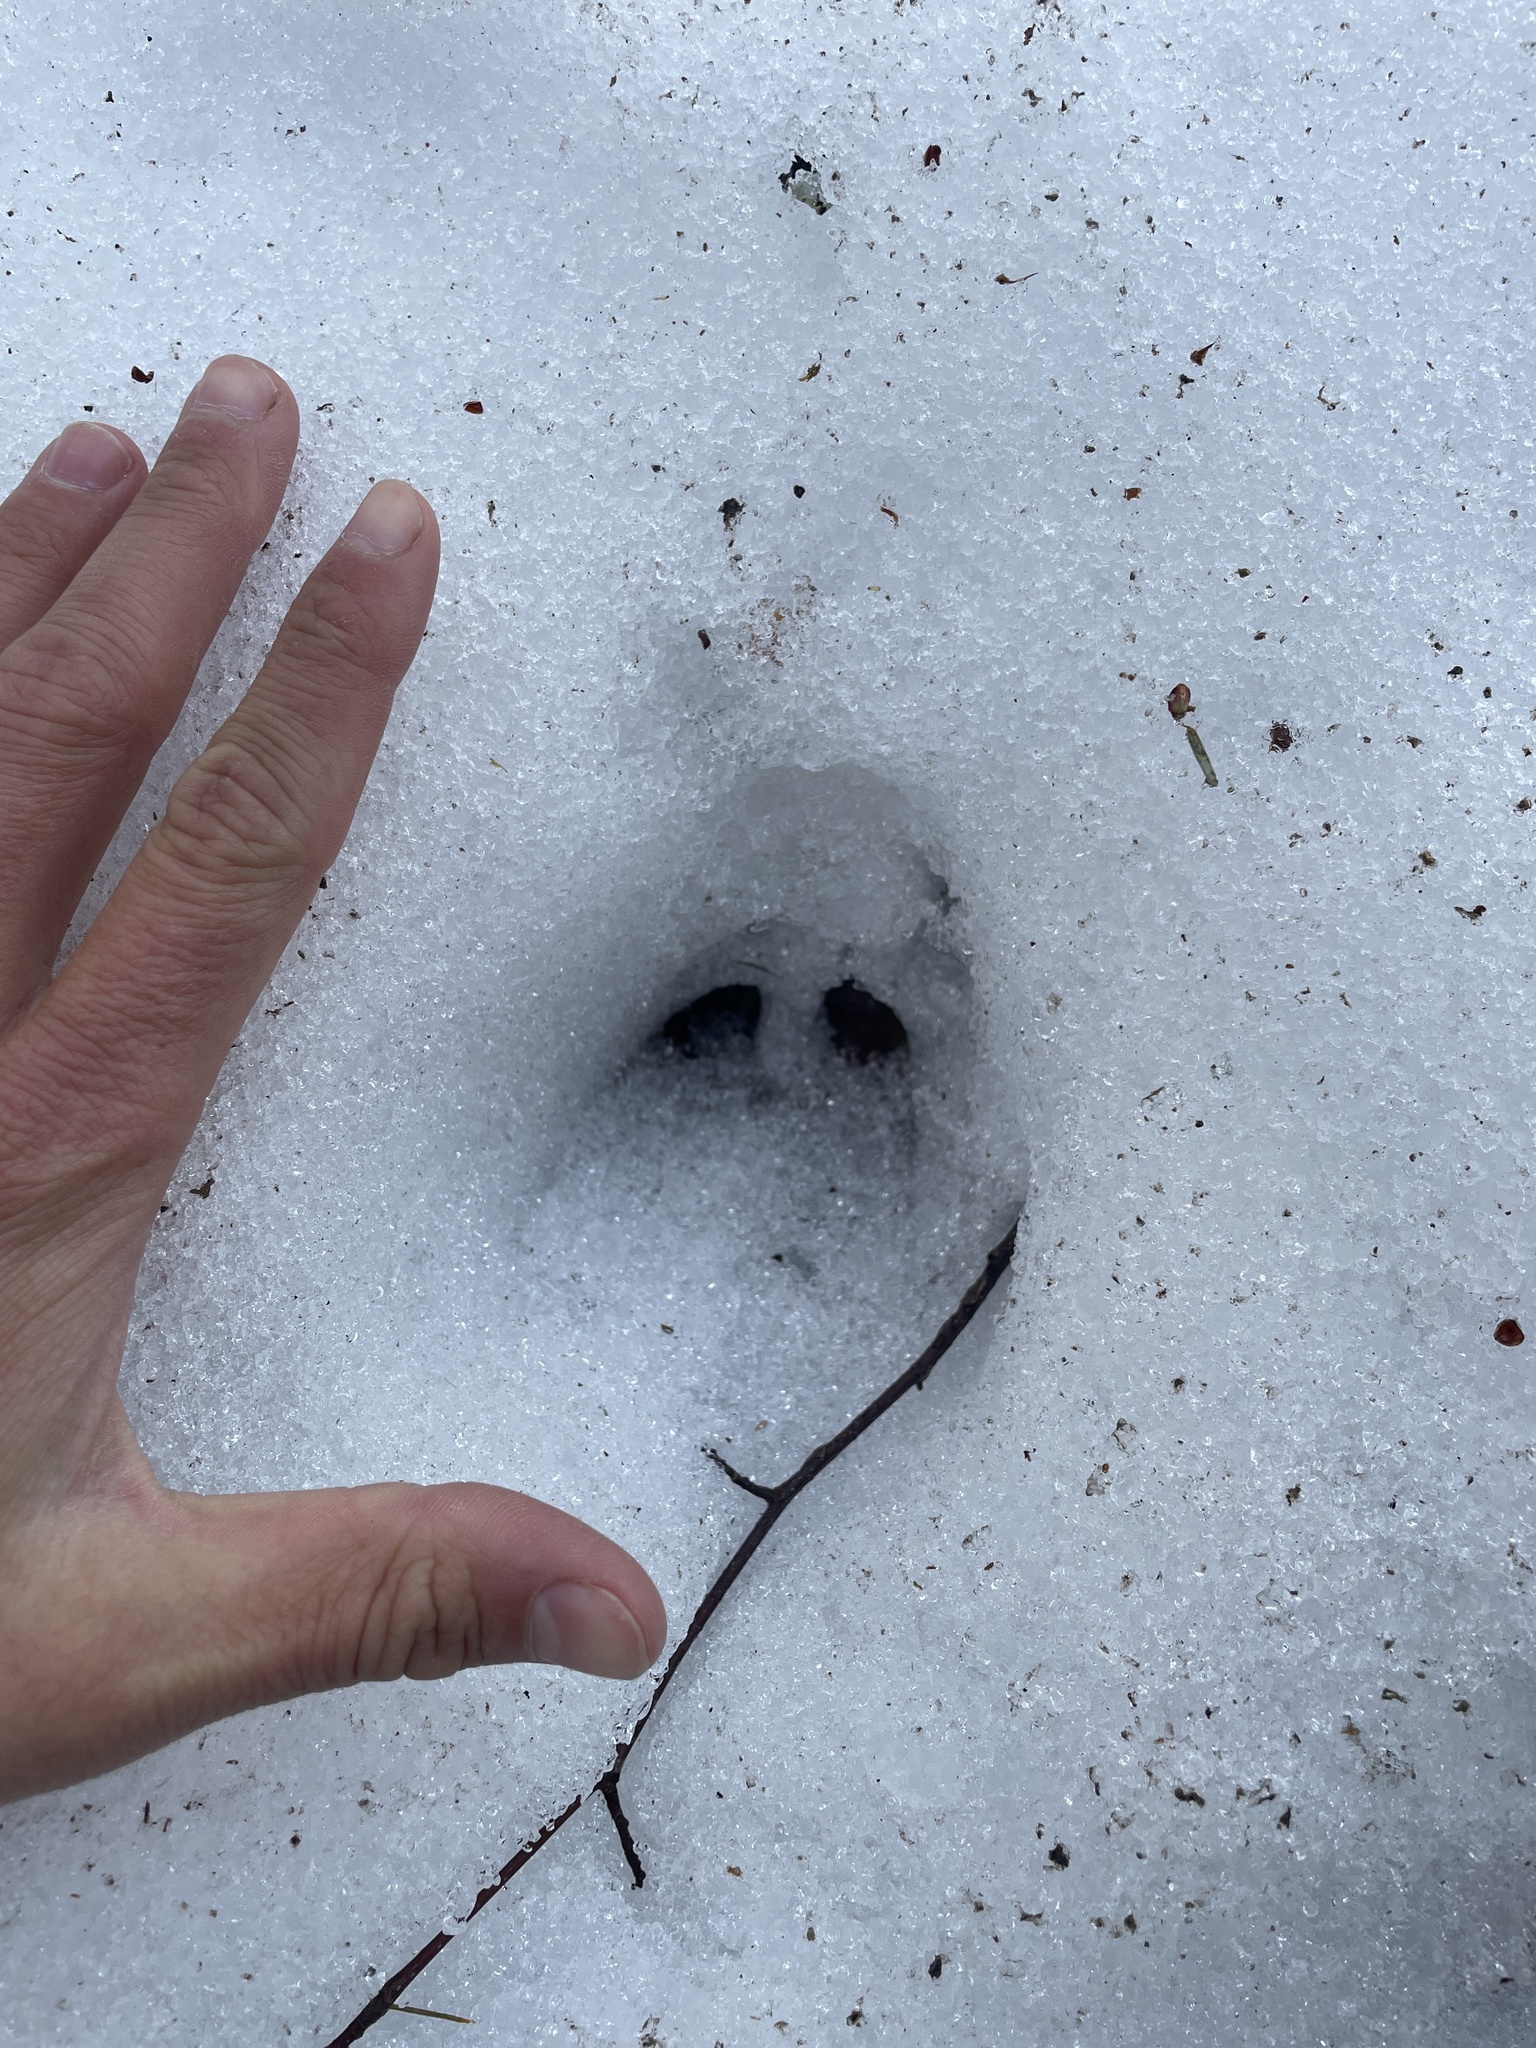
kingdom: Animalia
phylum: Chordata
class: Mammalia
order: Artiodactyla
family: Cervidae
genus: Odocoileus
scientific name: Odocoileus virginianus
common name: White-tailed deer
